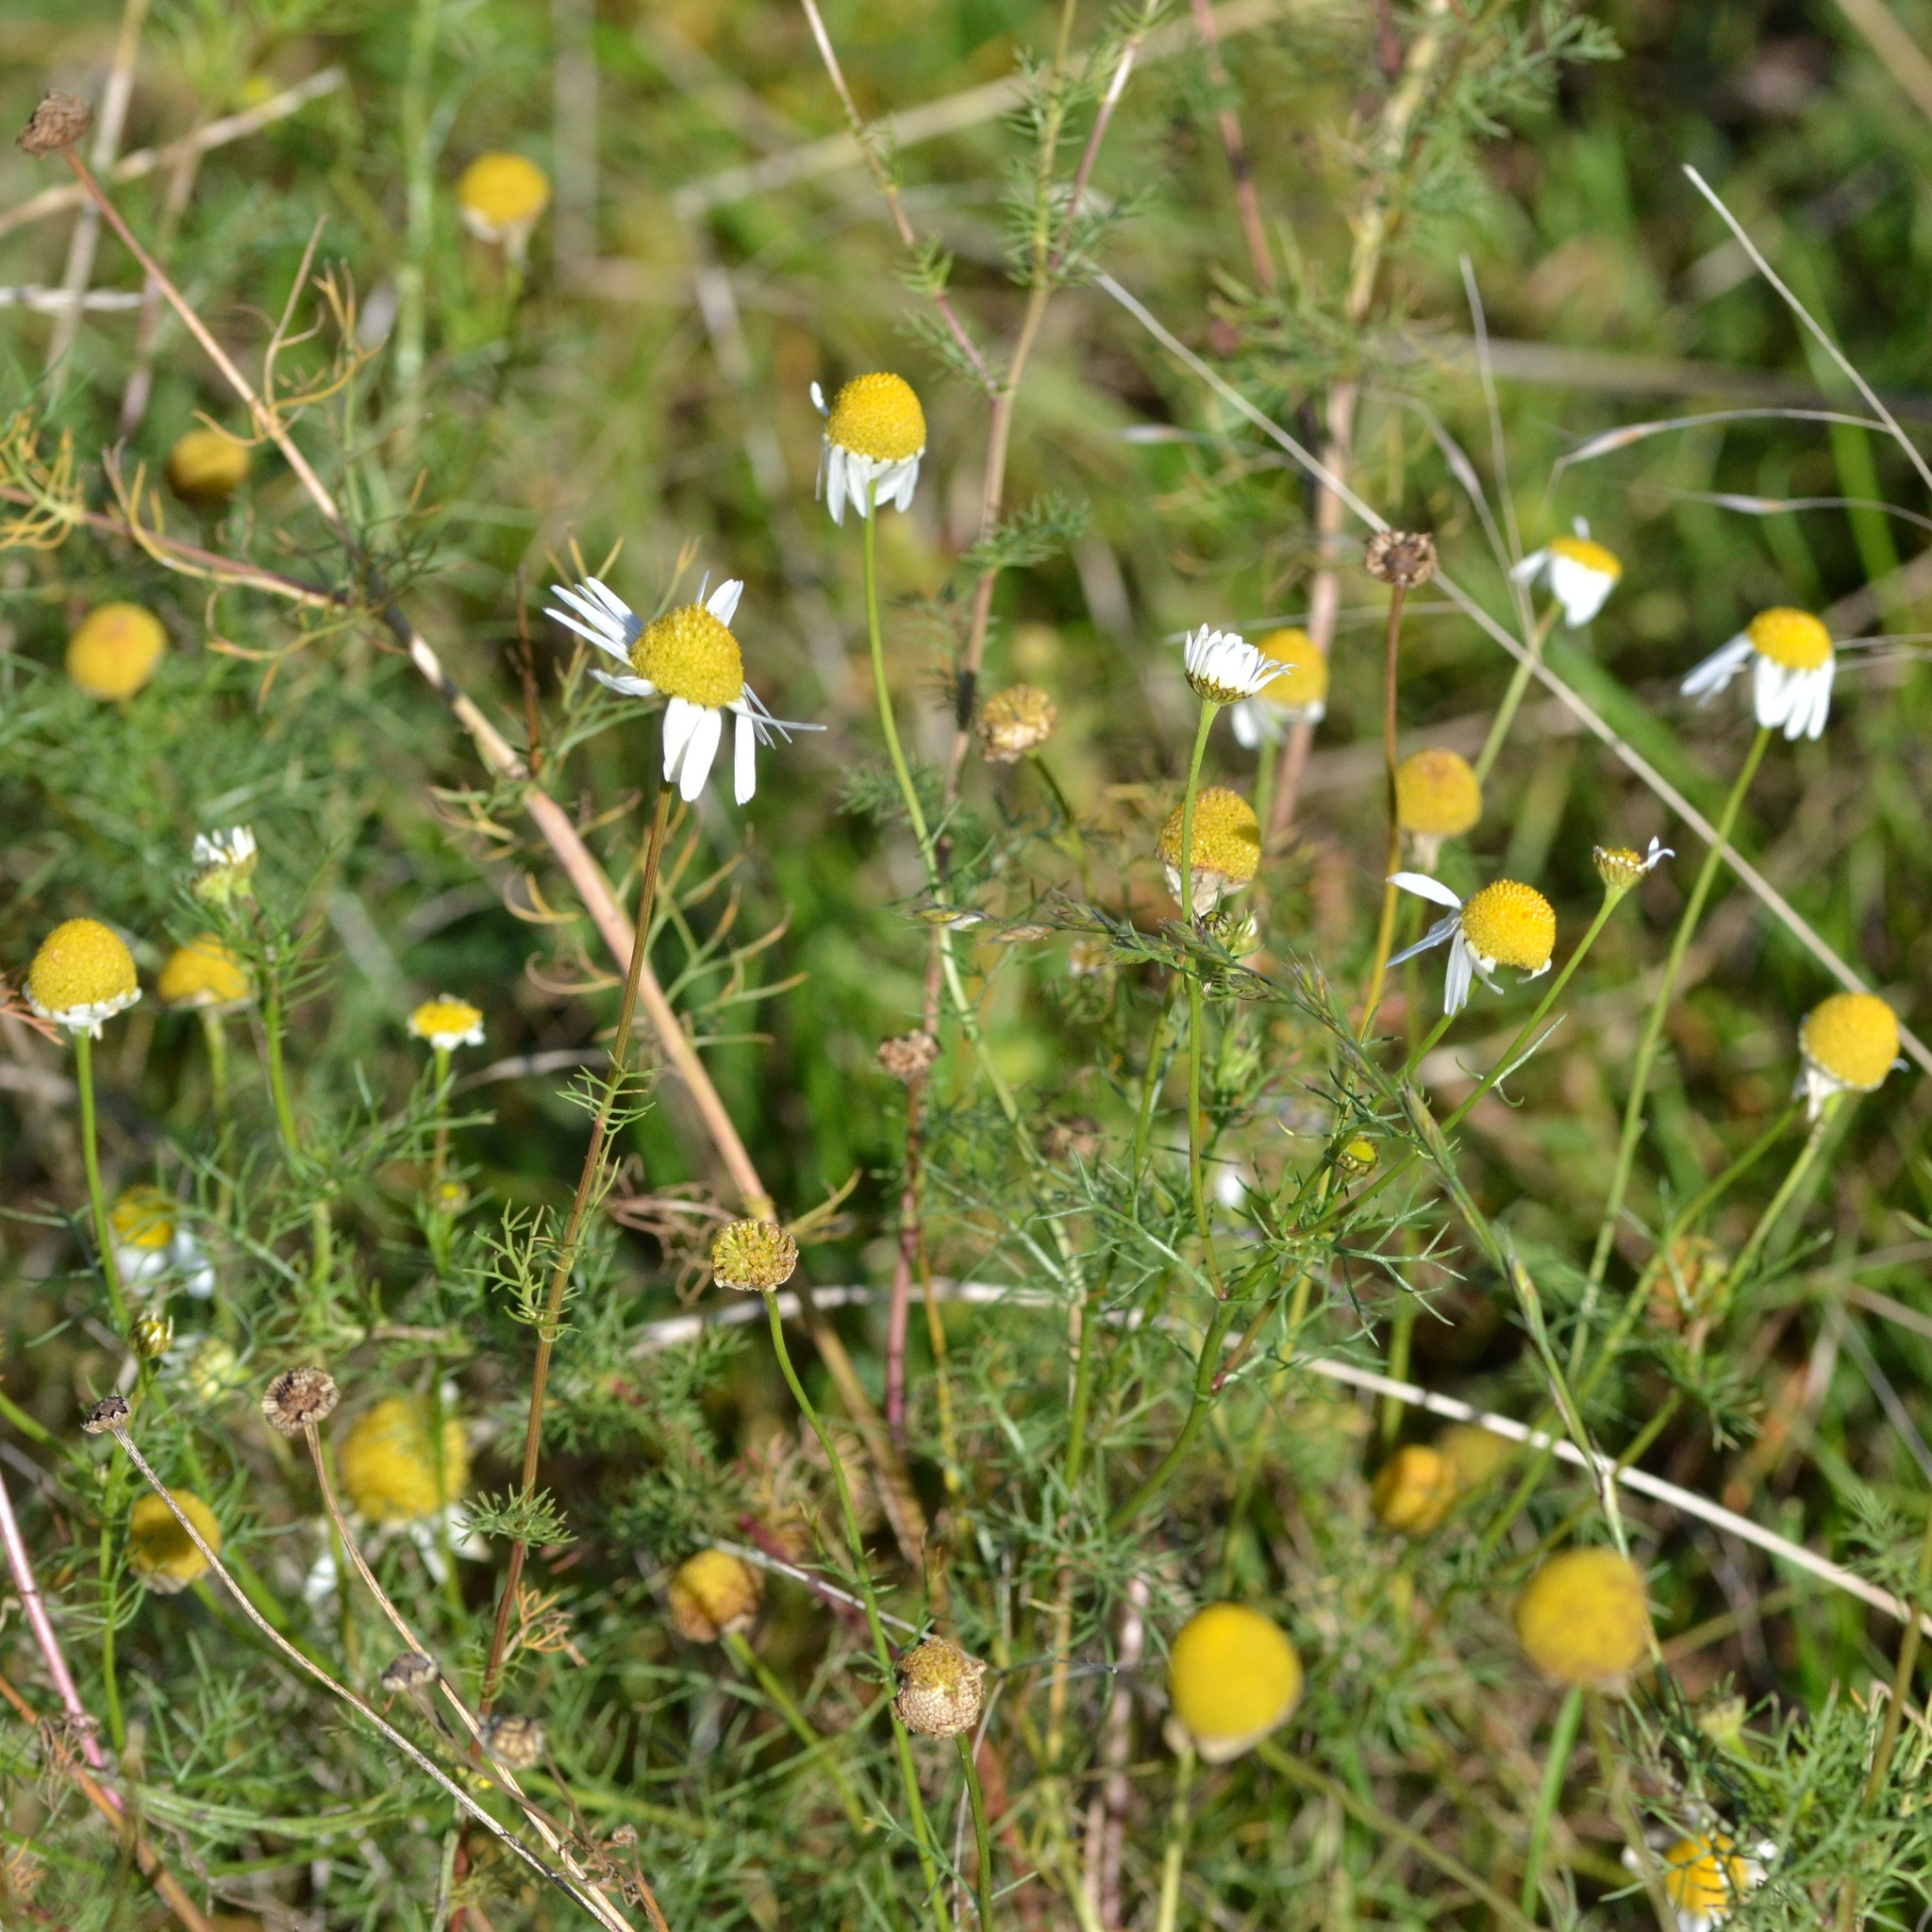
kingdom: Plantae
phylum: Tracheophyta
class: Magnoliopsida
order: Asterales
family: Asteraceae
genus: Tripleurospermum
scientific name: Tripleurospermum inodorum
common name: Scentless mayweed
